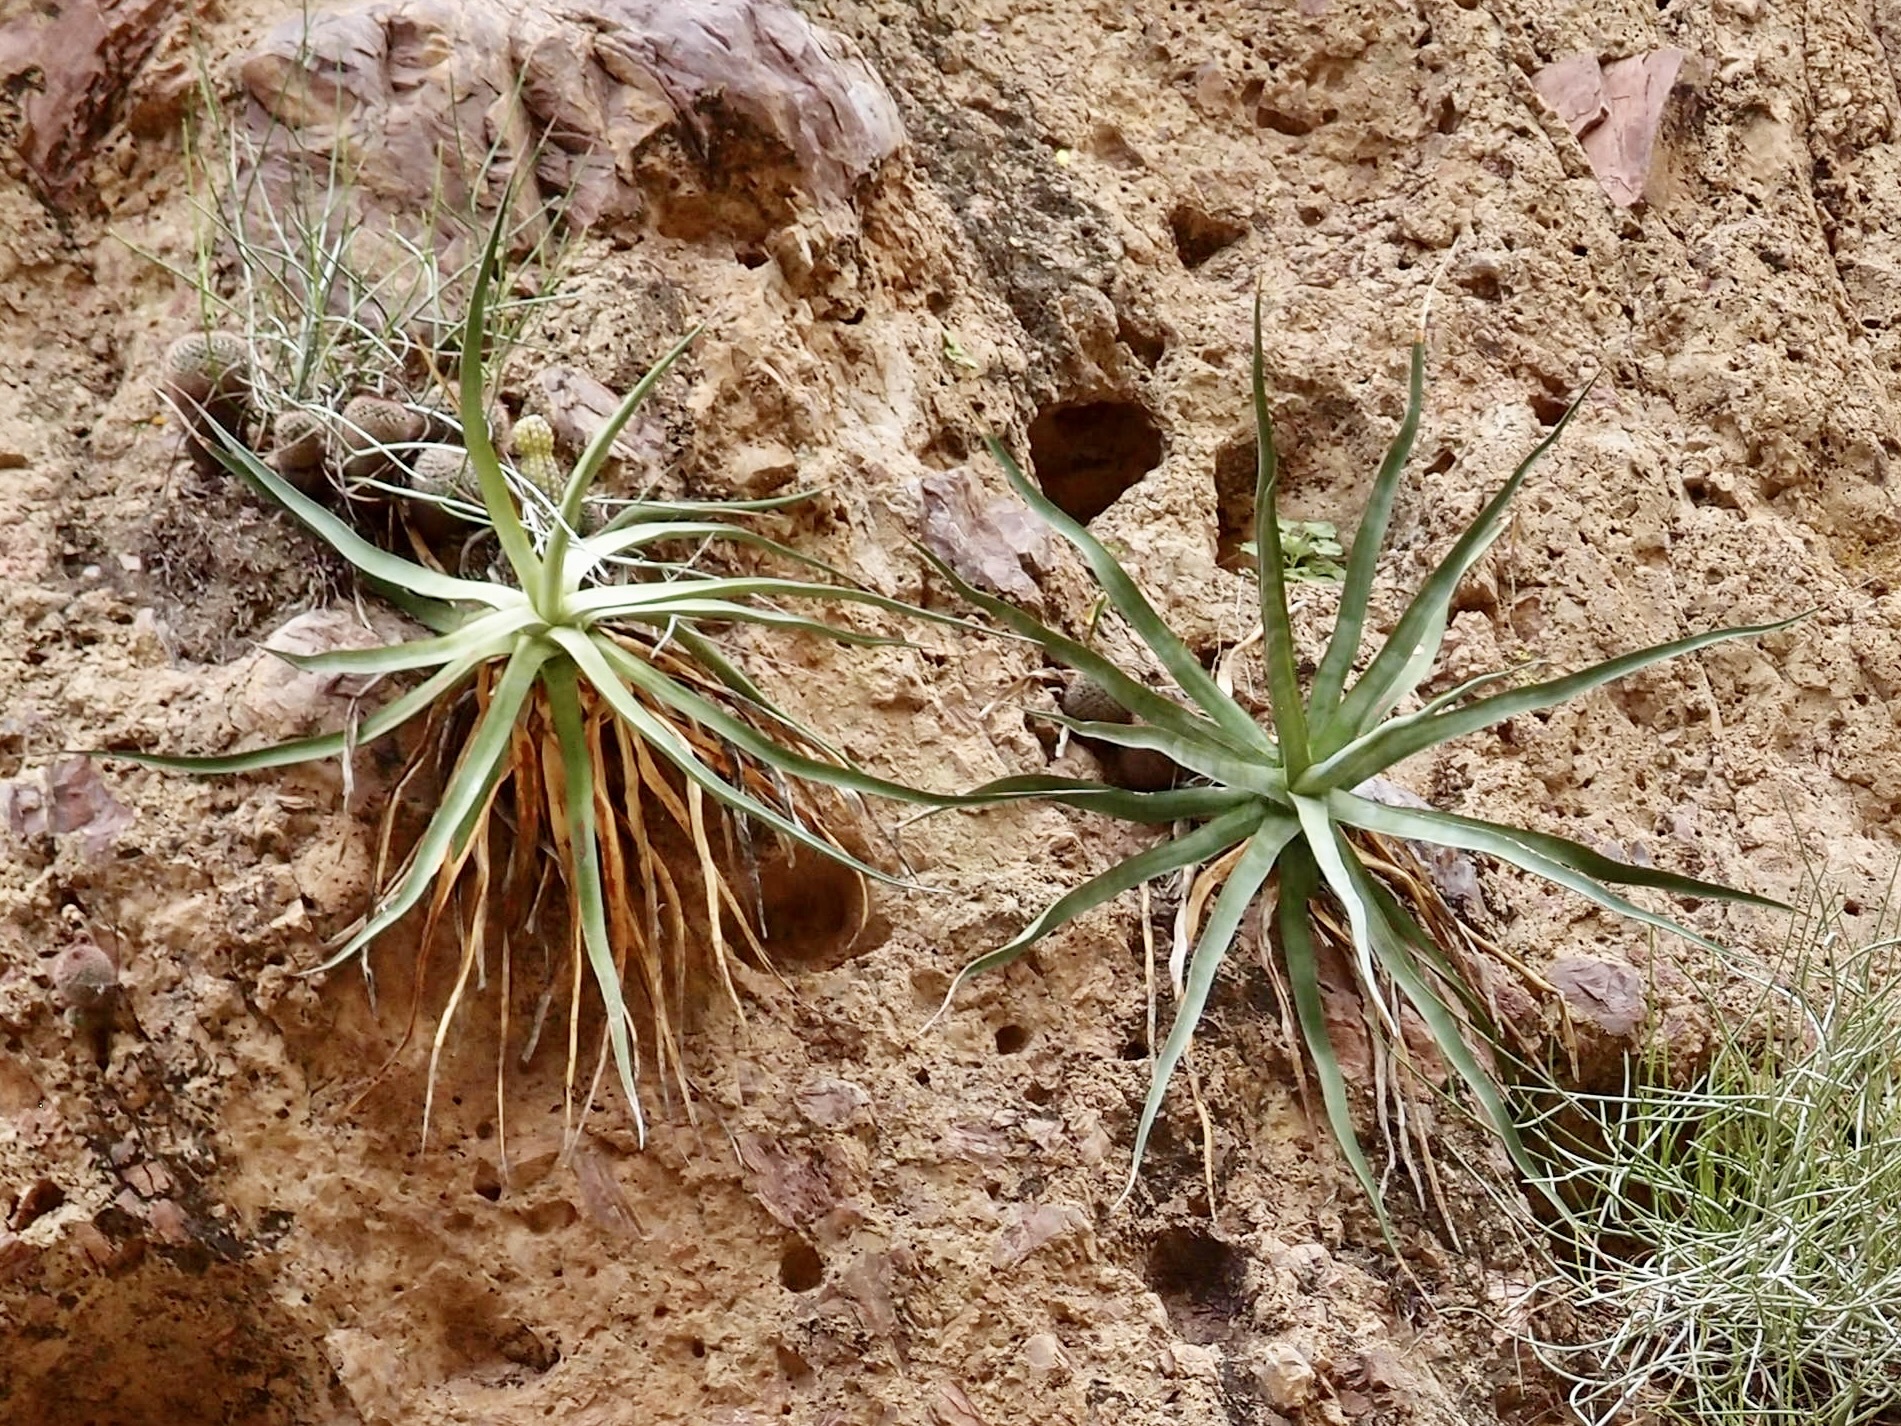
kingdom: Plantae
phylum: Tracheophyta
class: Liliopsida
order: Asparagales
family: Asparagaceae
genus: Agave
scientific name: Agave chrysoglossa
